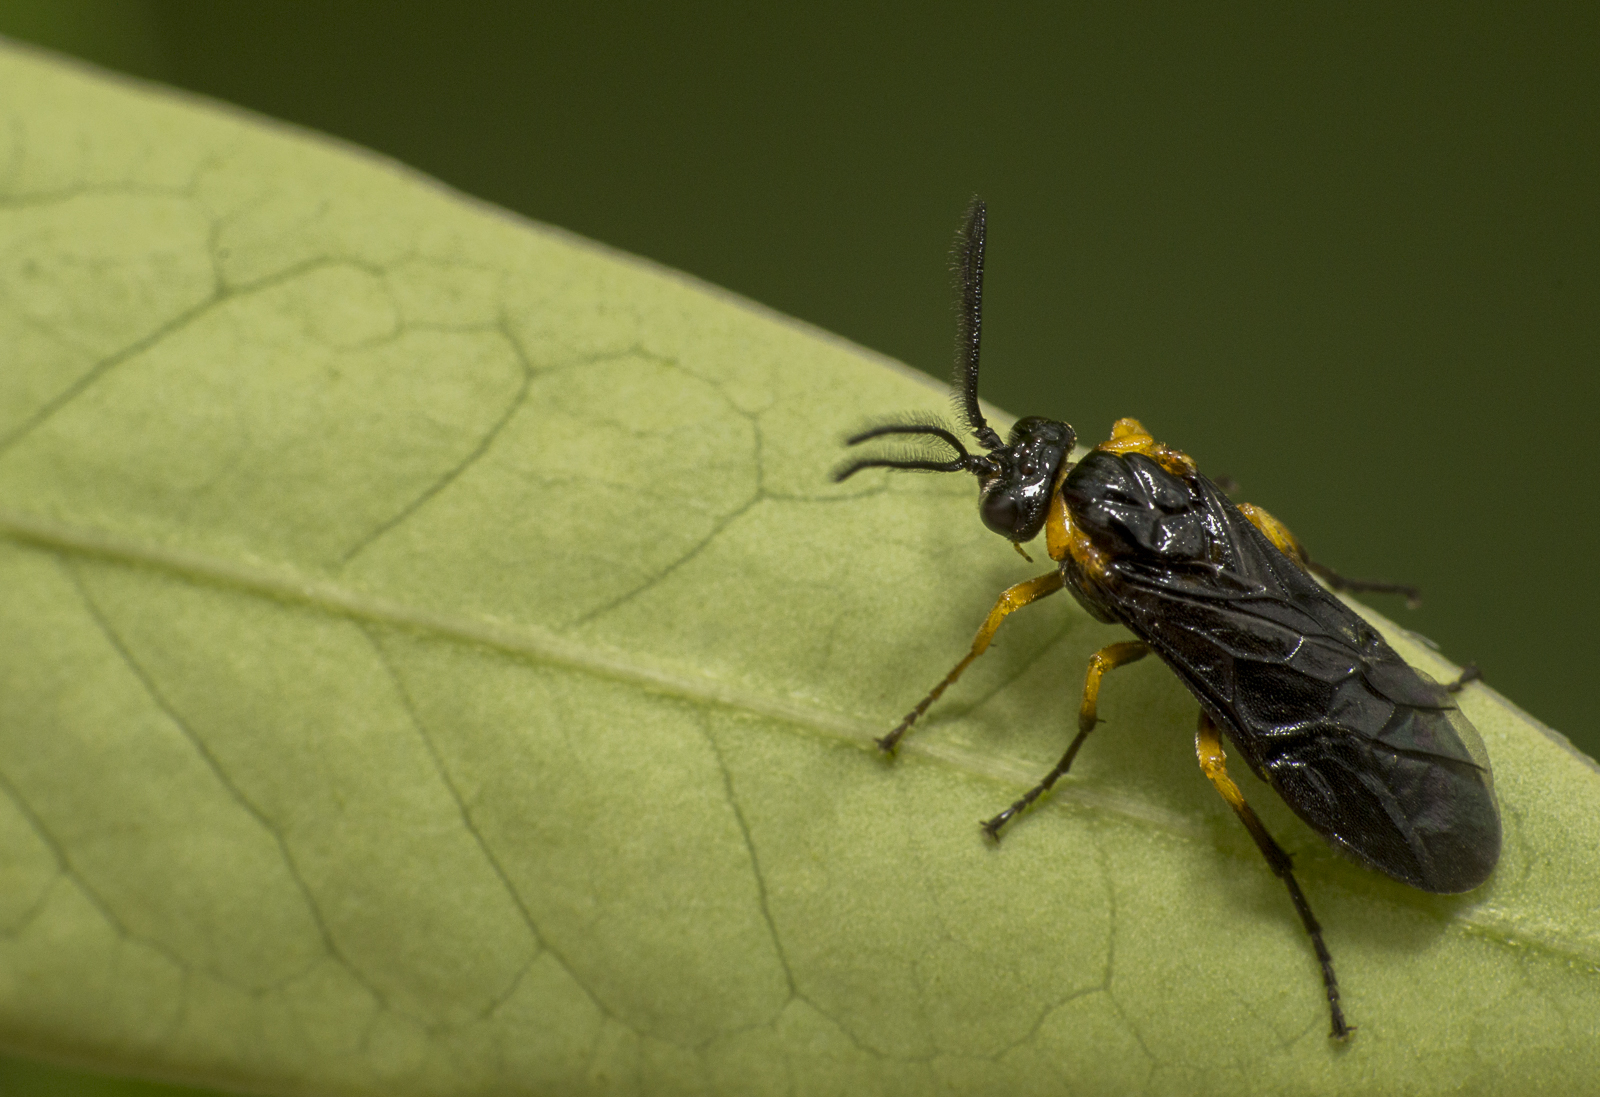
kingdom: Animalia
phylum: Arthropoda
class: Insecta
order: Hymenoptera
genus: Adurgoa
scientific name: Adurgoa
